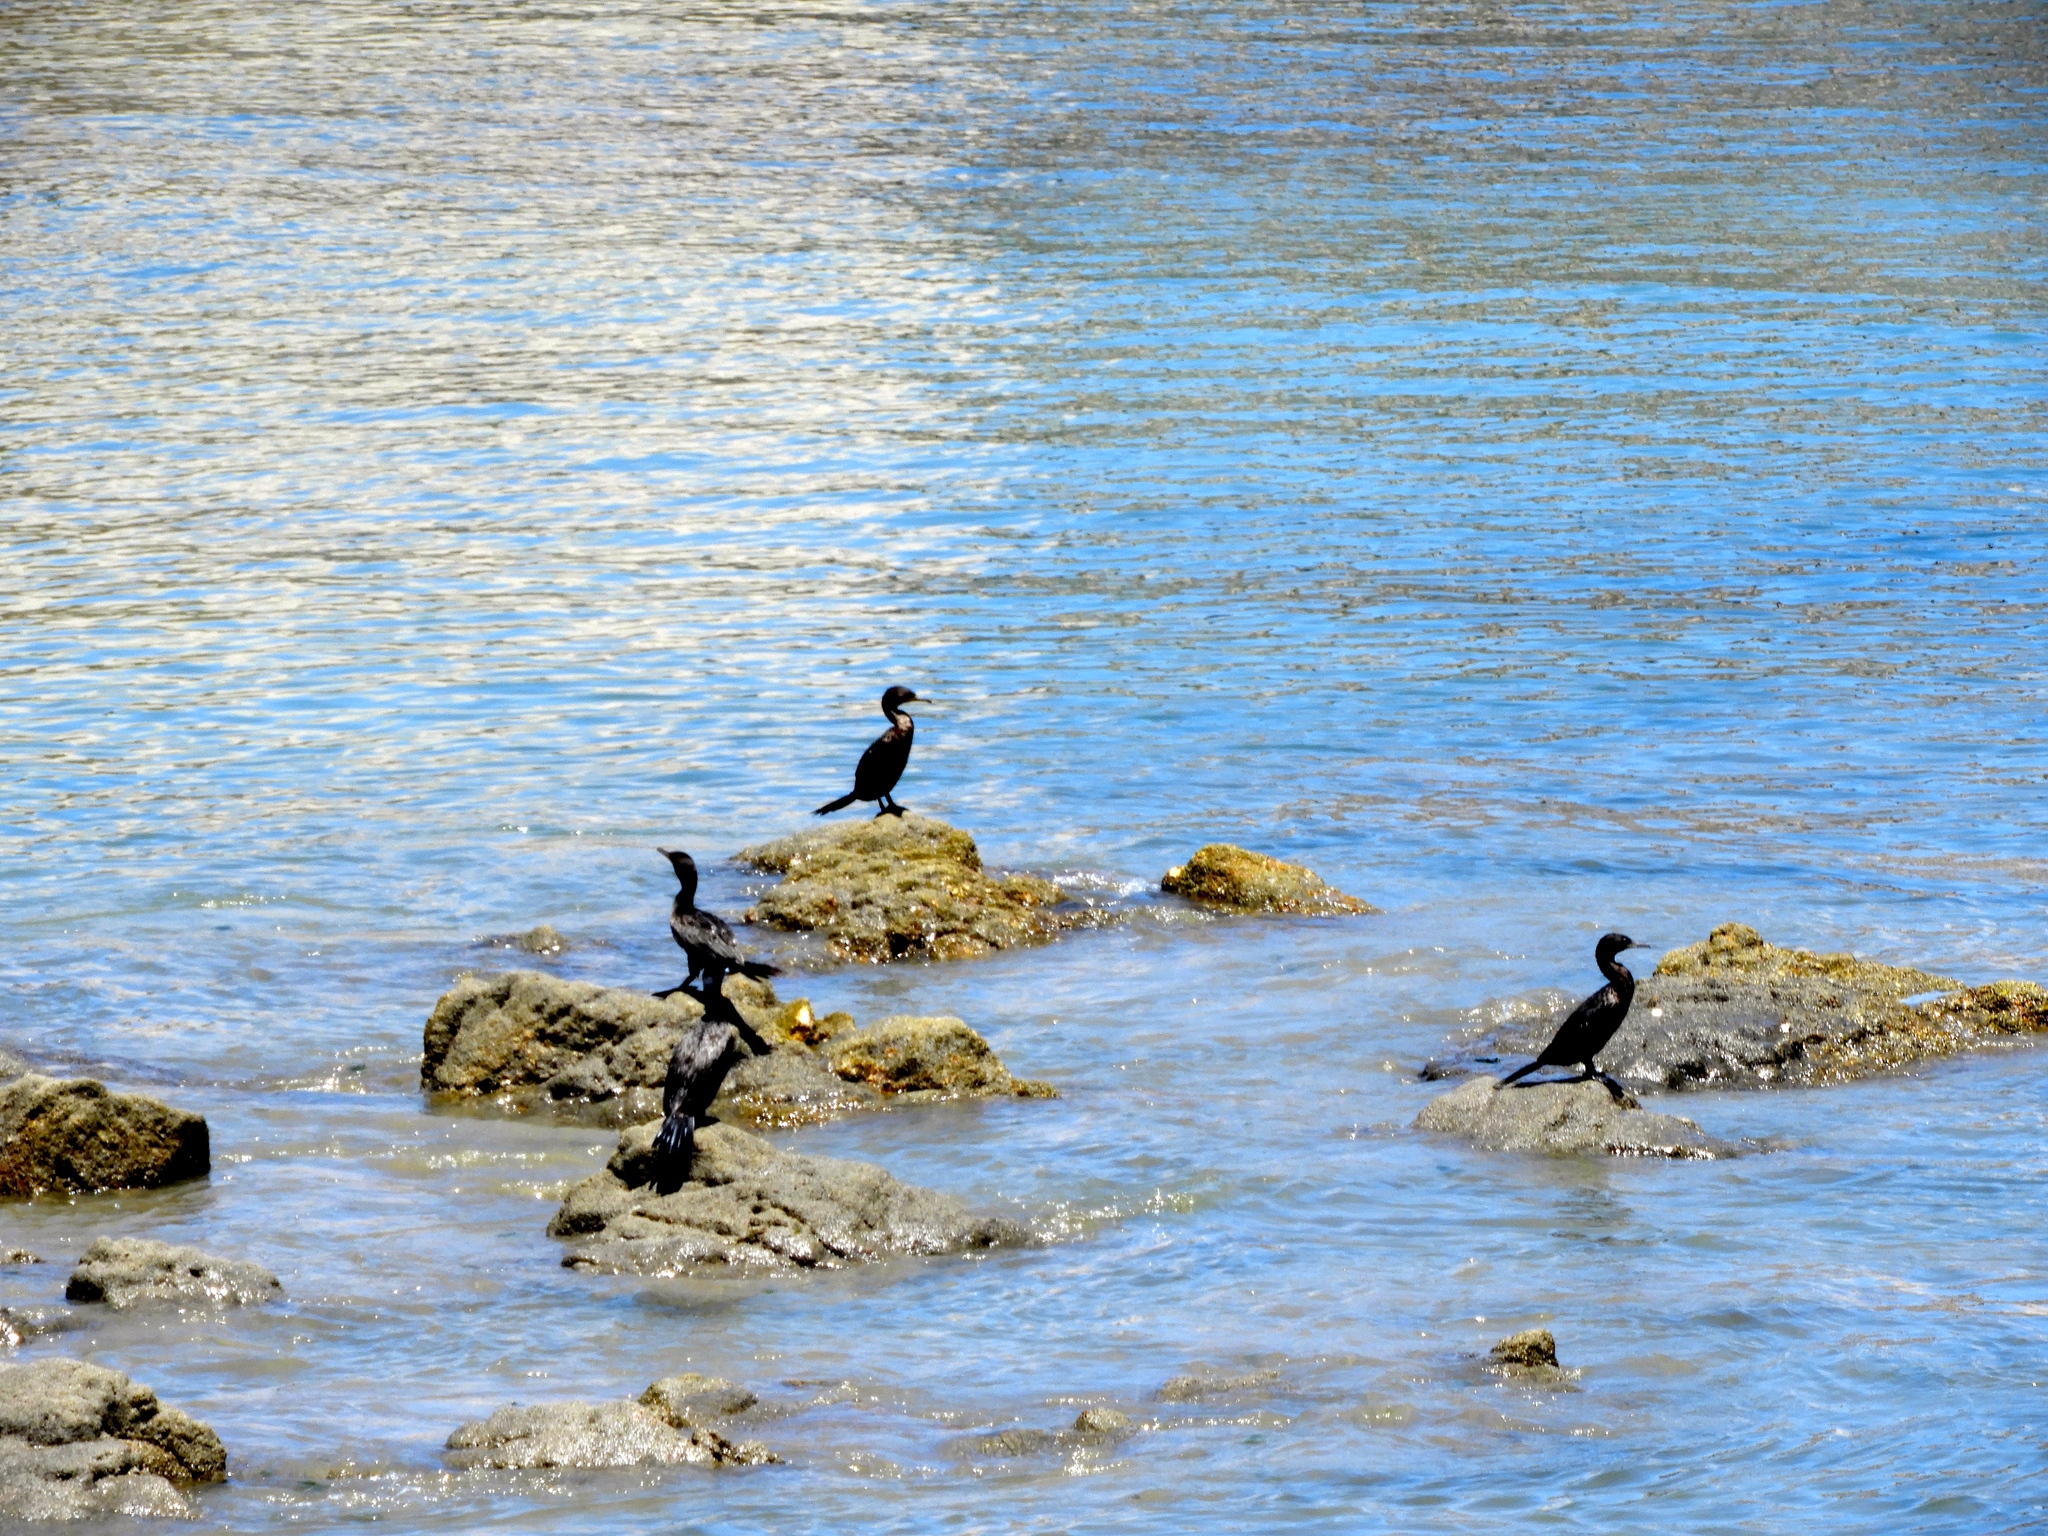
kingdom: Animalia
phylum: Chordata
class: Aves
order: Suliformes
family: Phalacrocoracidae
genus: Phalacrocorax
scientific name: Phalacrocorax brasilianus
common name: Neotropic cormorant
